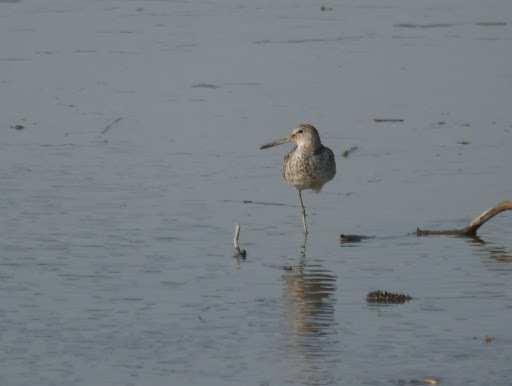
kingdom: Animalia
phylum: Chordata
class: Aves
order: Charadriiformes
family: Scolopacidae
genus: Tringa
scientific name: Tringa semipalmata
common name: Willet
